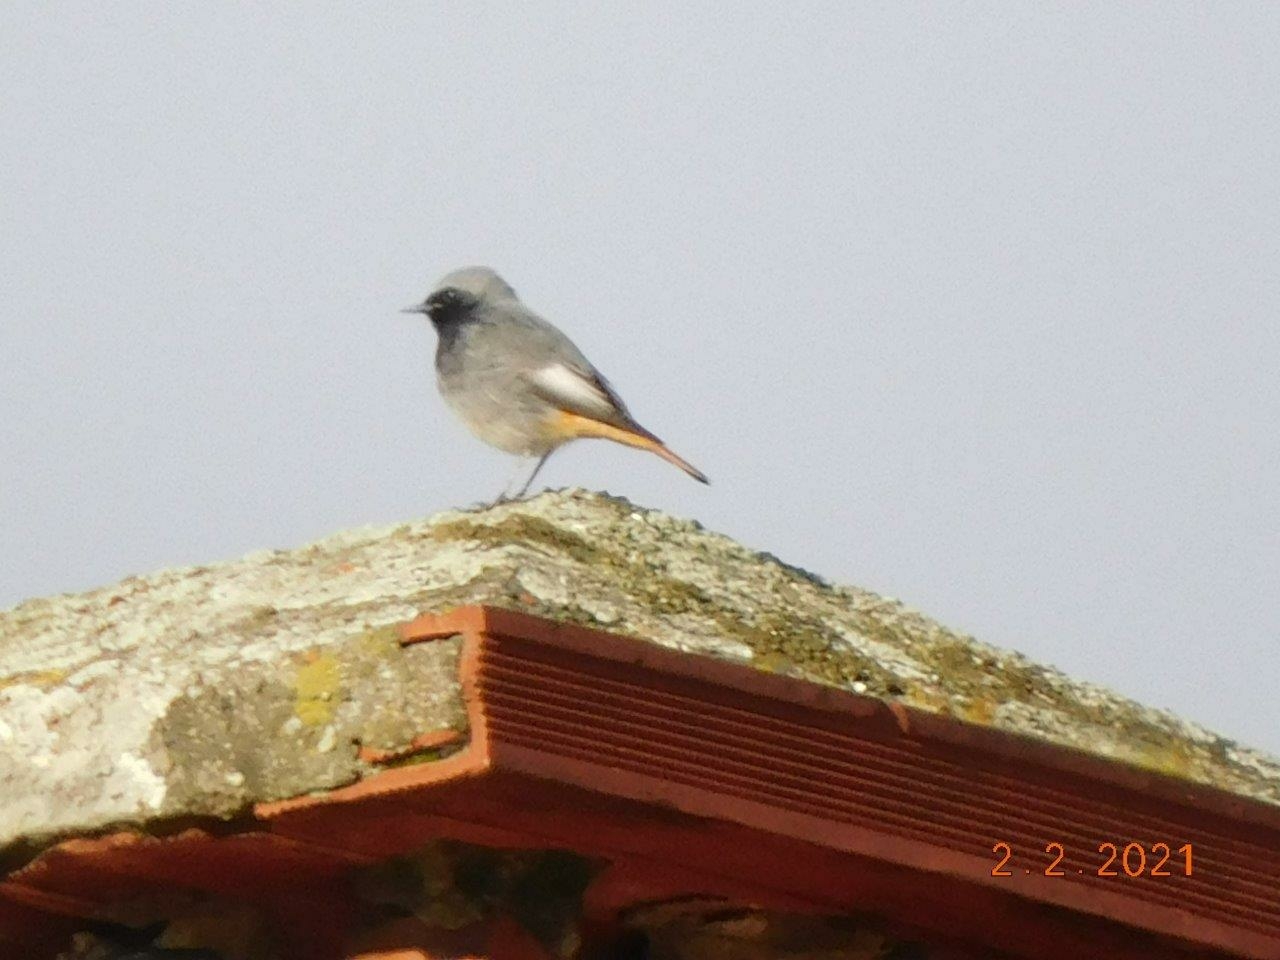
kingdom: Animalia
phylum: Chordata
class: Aves
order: Passeriformes
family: Muscicapidae
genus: Phoenicurus
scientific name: Phoenicurus ochruros
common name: Black redstart
